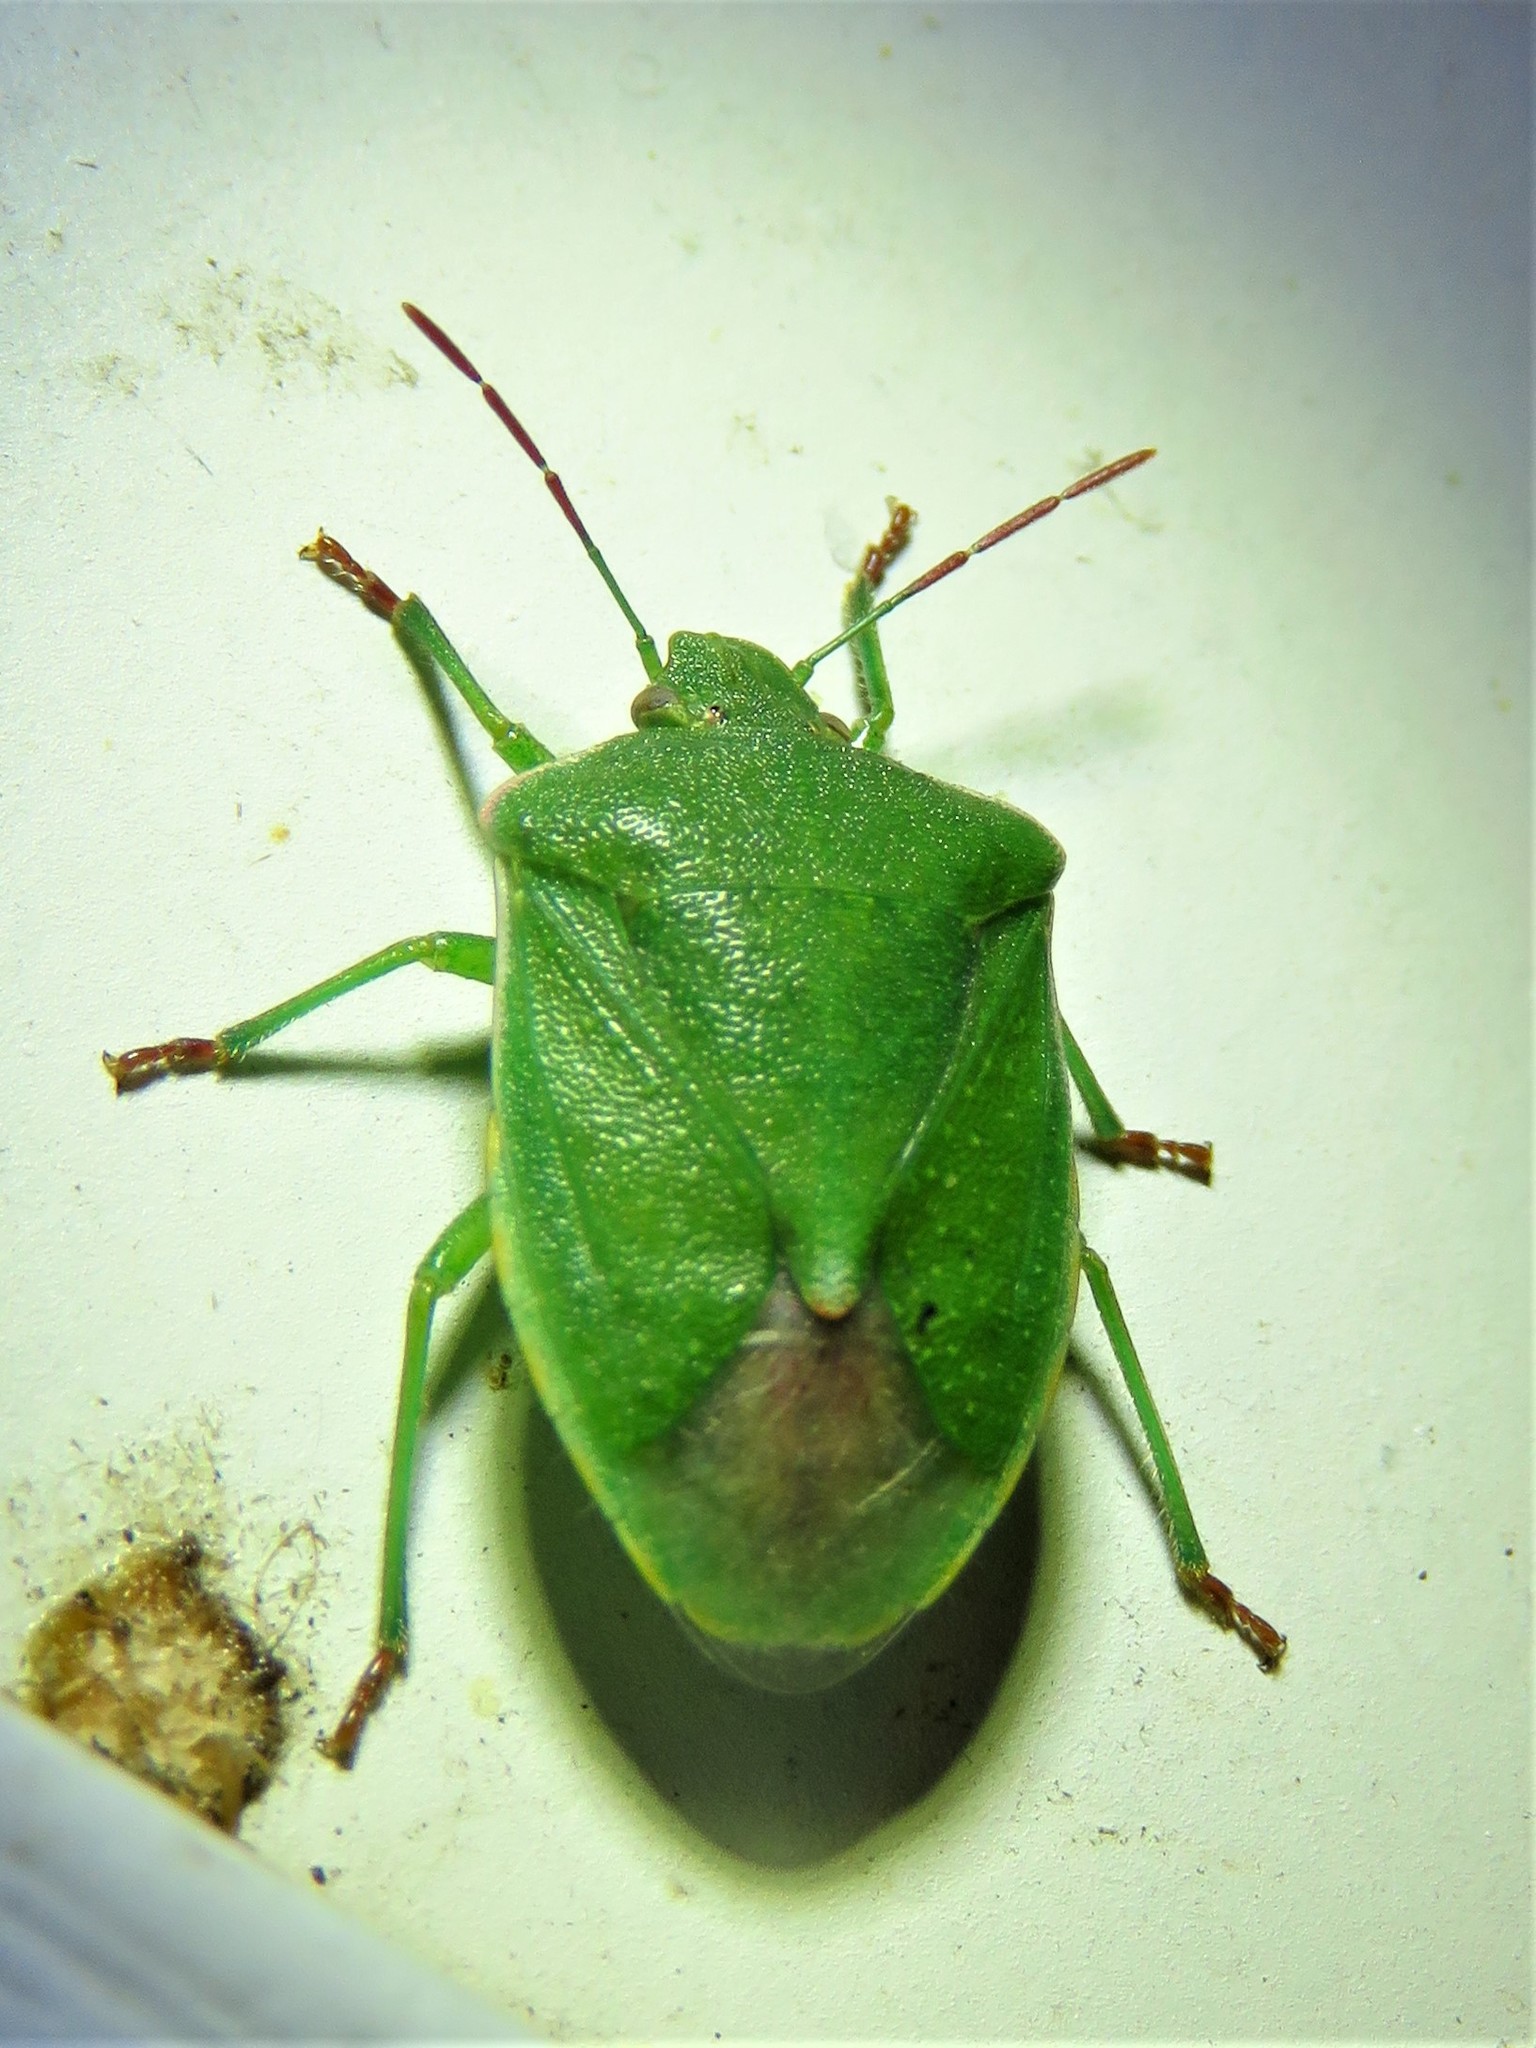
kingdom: Animalia
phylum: Arthropoda
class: Insecta
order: Hemiptera
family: Pentatomidae
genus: Thyanta
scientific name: Thyanta custator
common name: Stink bug
